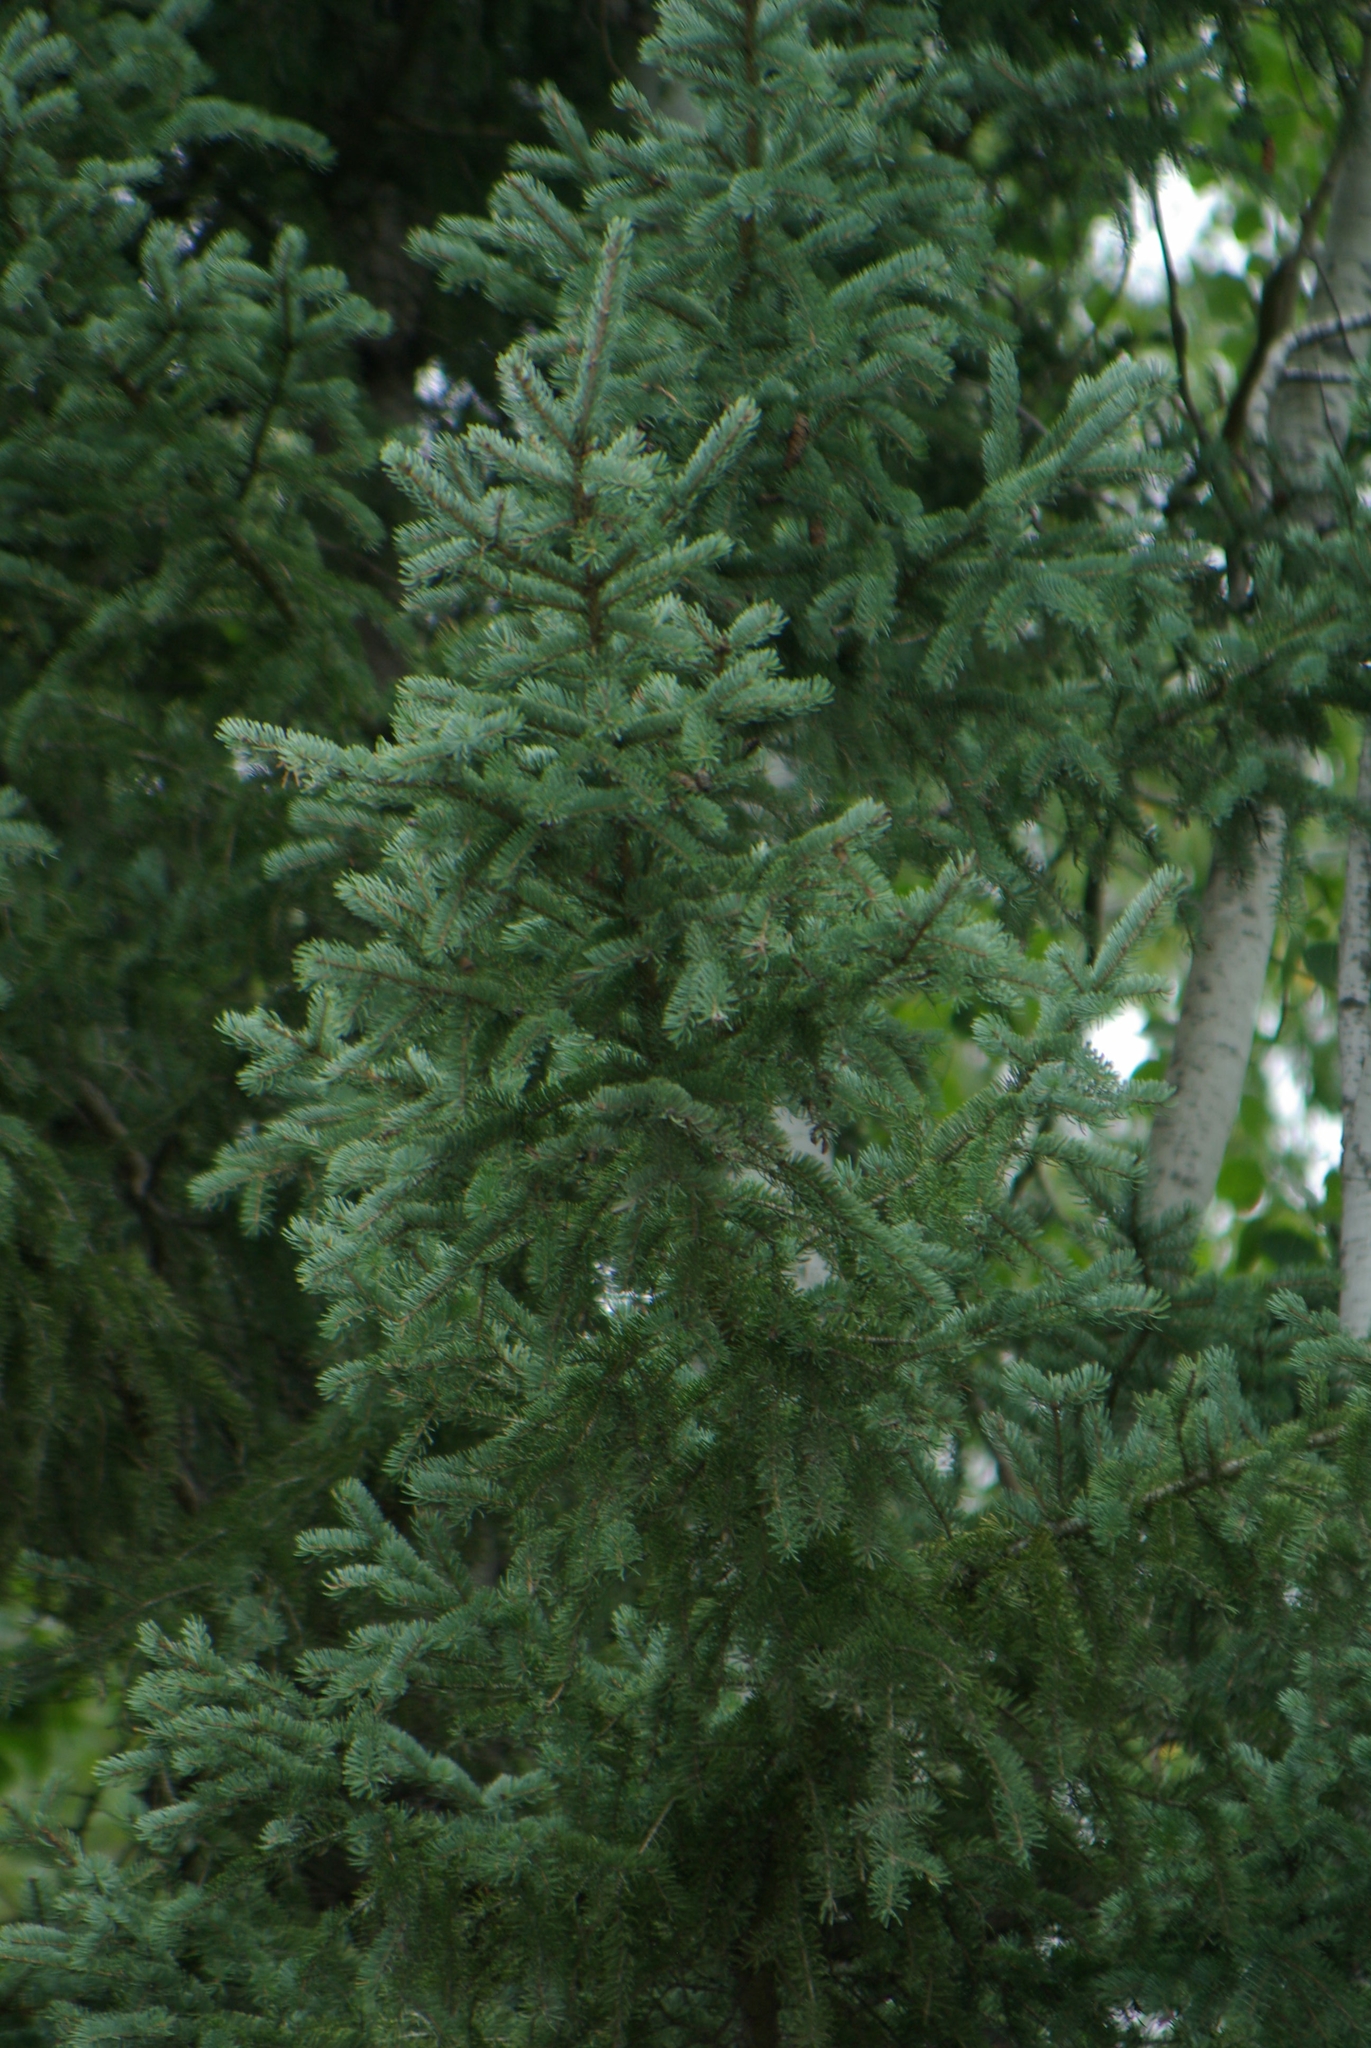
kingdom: Plantae
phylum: Tracheophyta
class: Pinopsida
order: Pinales
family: Pinaceae
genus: Picea
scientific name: Picea glauca
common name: White spruce
